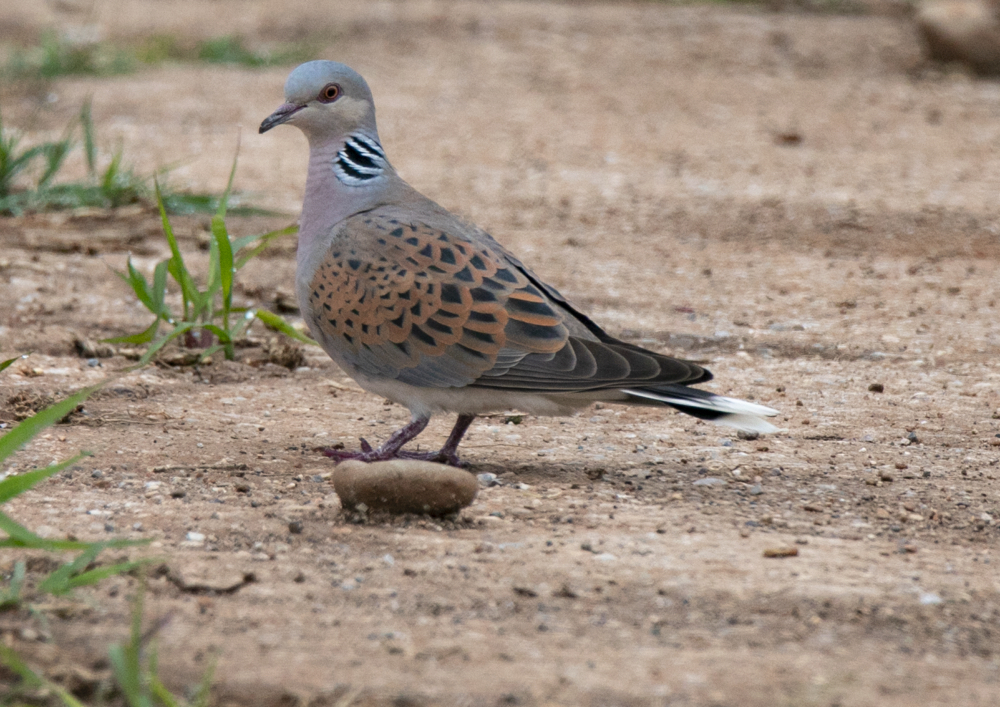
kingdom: Animalia
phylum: Chordata
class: Aves
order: Columbiformes
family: Columbidae
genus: Streptopelia
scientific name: Streptopelia turtur
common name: European turtle dove
